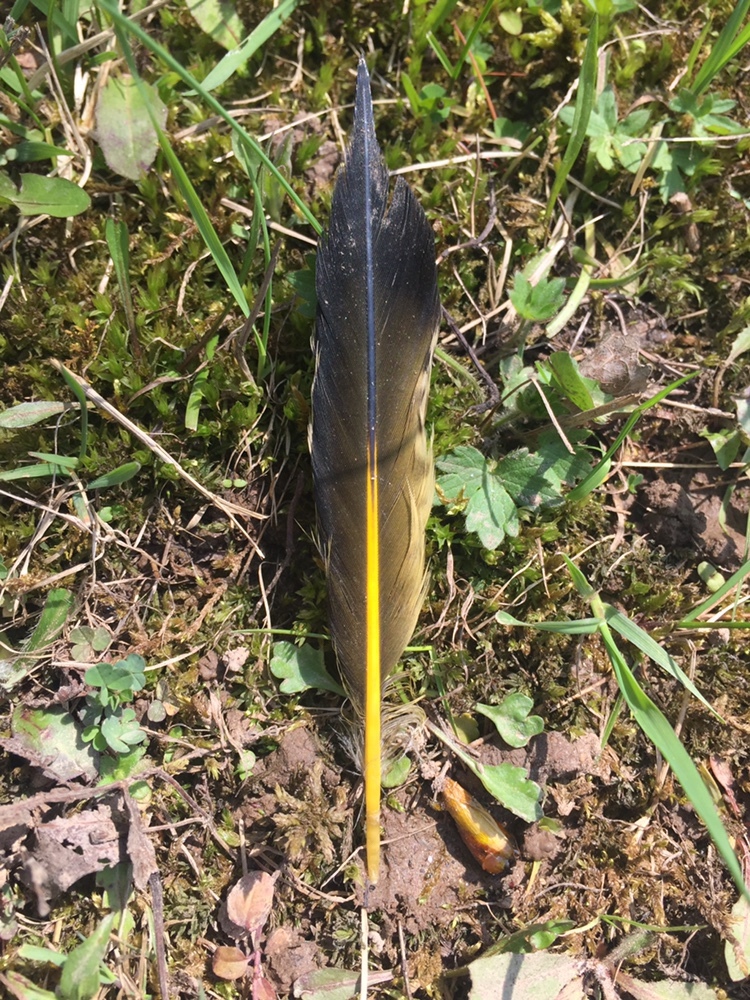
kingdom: Animalia
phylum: Chordata
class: Aves
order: Piciformes
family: Picidae
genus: Colaptes
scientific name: Colaptes auratus
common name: Northern flicker
